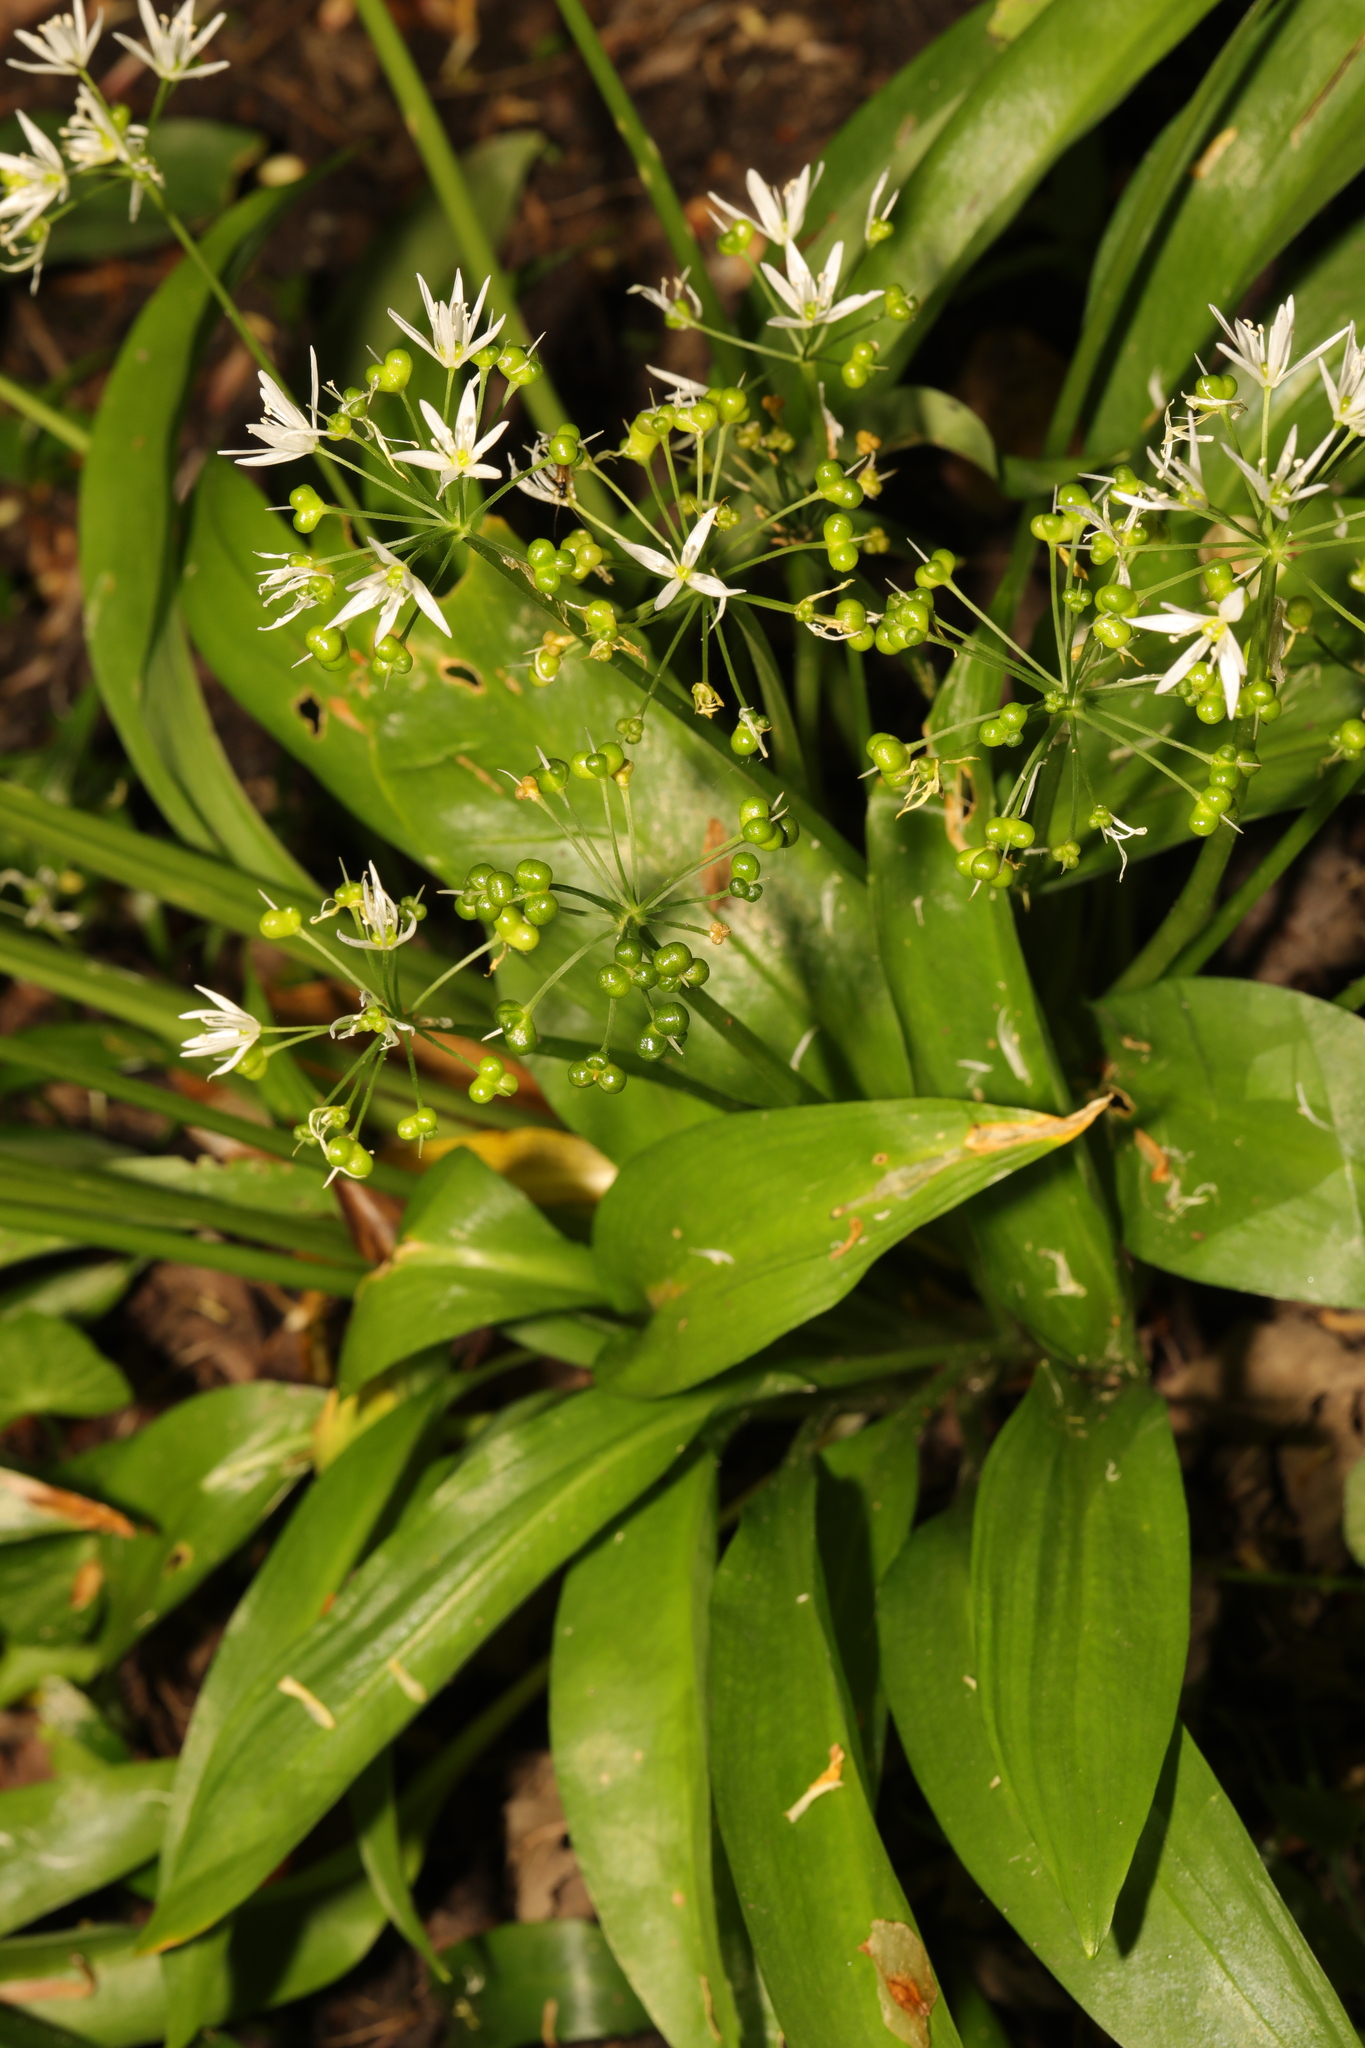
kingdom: Plantae
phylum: Tracheophyta
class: Liliopsida
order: Asparagales
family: Amaryllidaceae
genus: Allium
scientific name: Allium ursinum
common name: Ramsons
